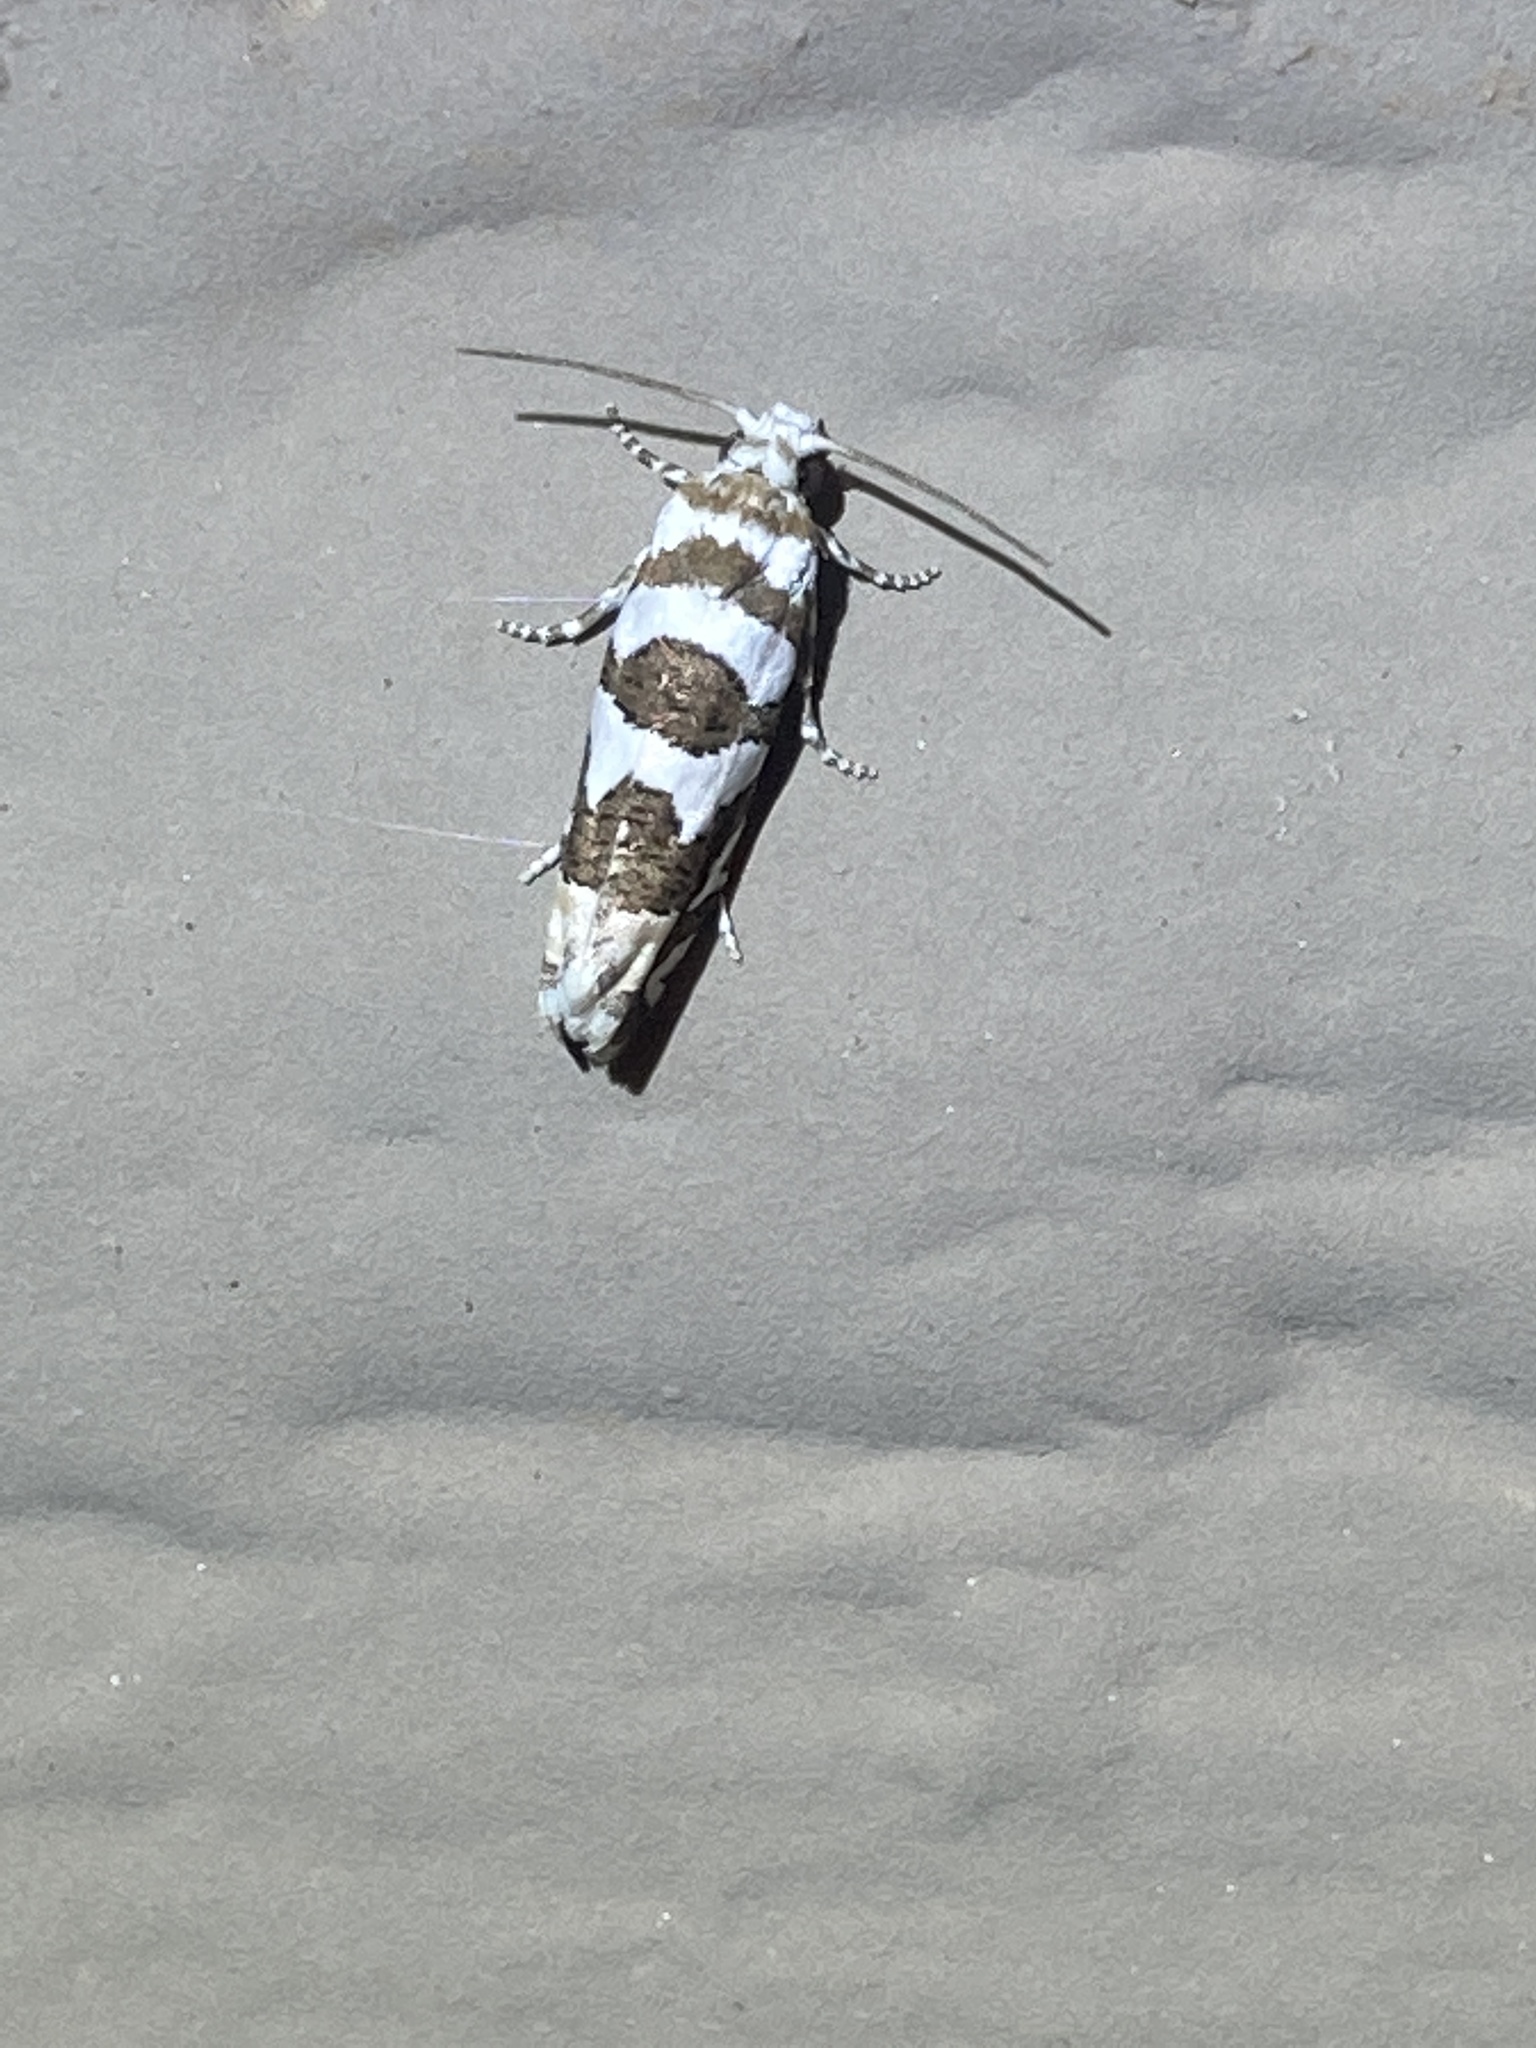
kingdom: Animalia
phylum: Arthropoda
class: Insecta
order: Lepidoptera
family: Tortricidae
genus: Pelochrista
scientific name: Pelochrista robinsonana
